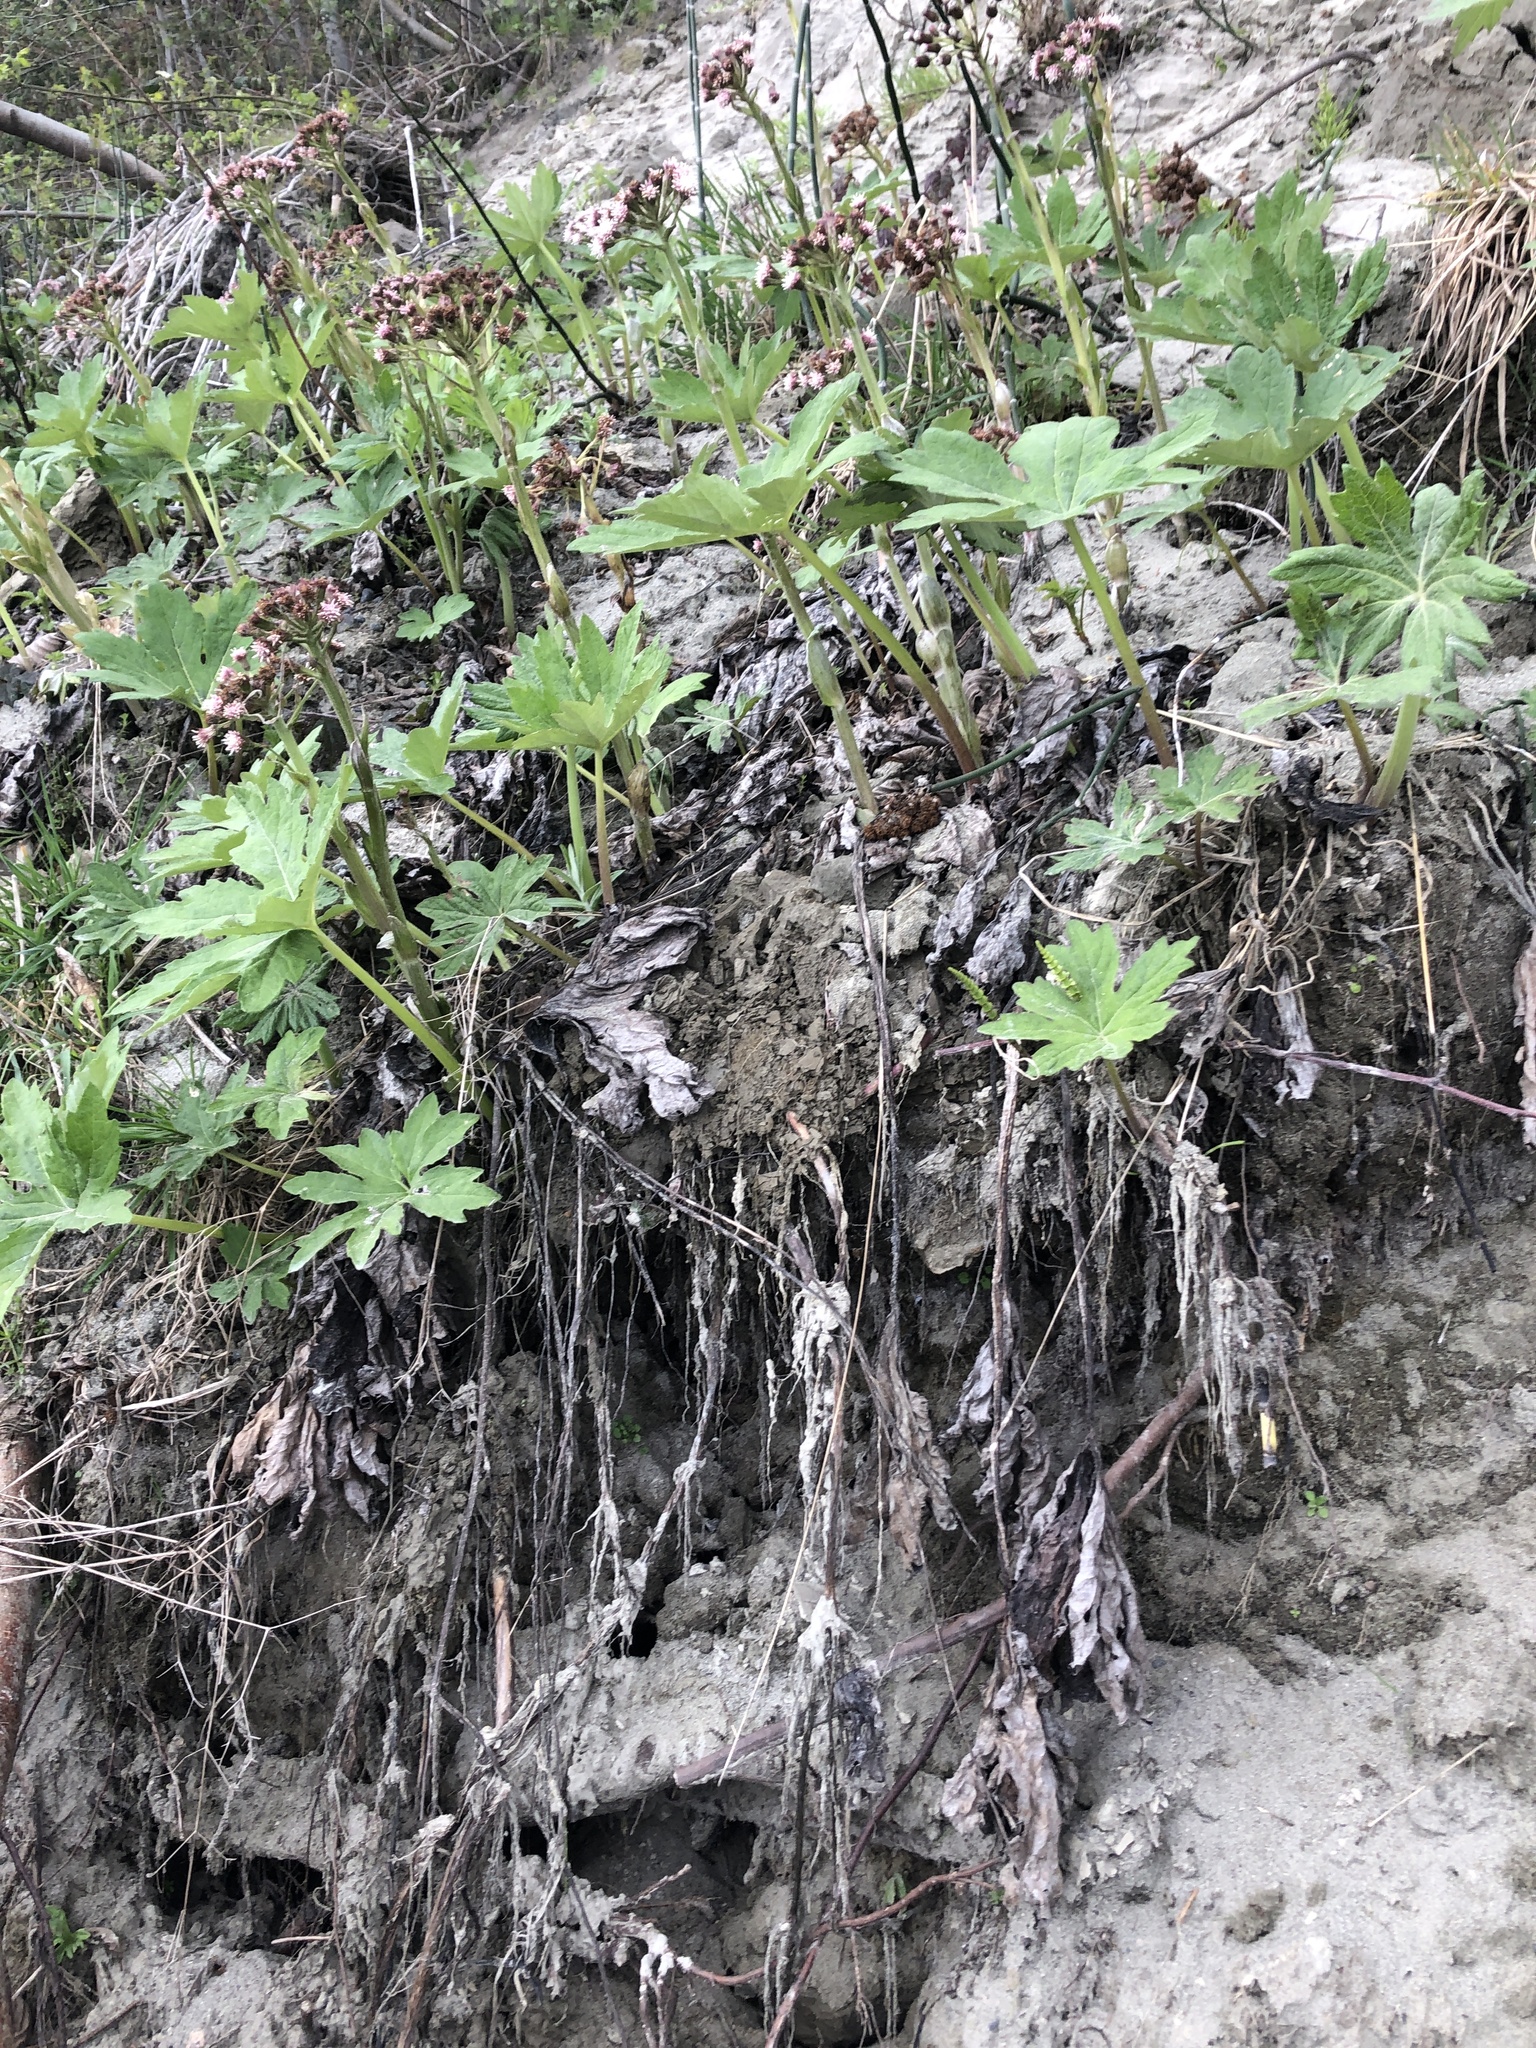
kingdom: Plantae
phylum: Tracheophyta
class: Magnoliopsida
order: Asterales
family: Asteraceae
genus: Petasites
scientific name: Petasites frigidus
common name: Arctic butterbur
